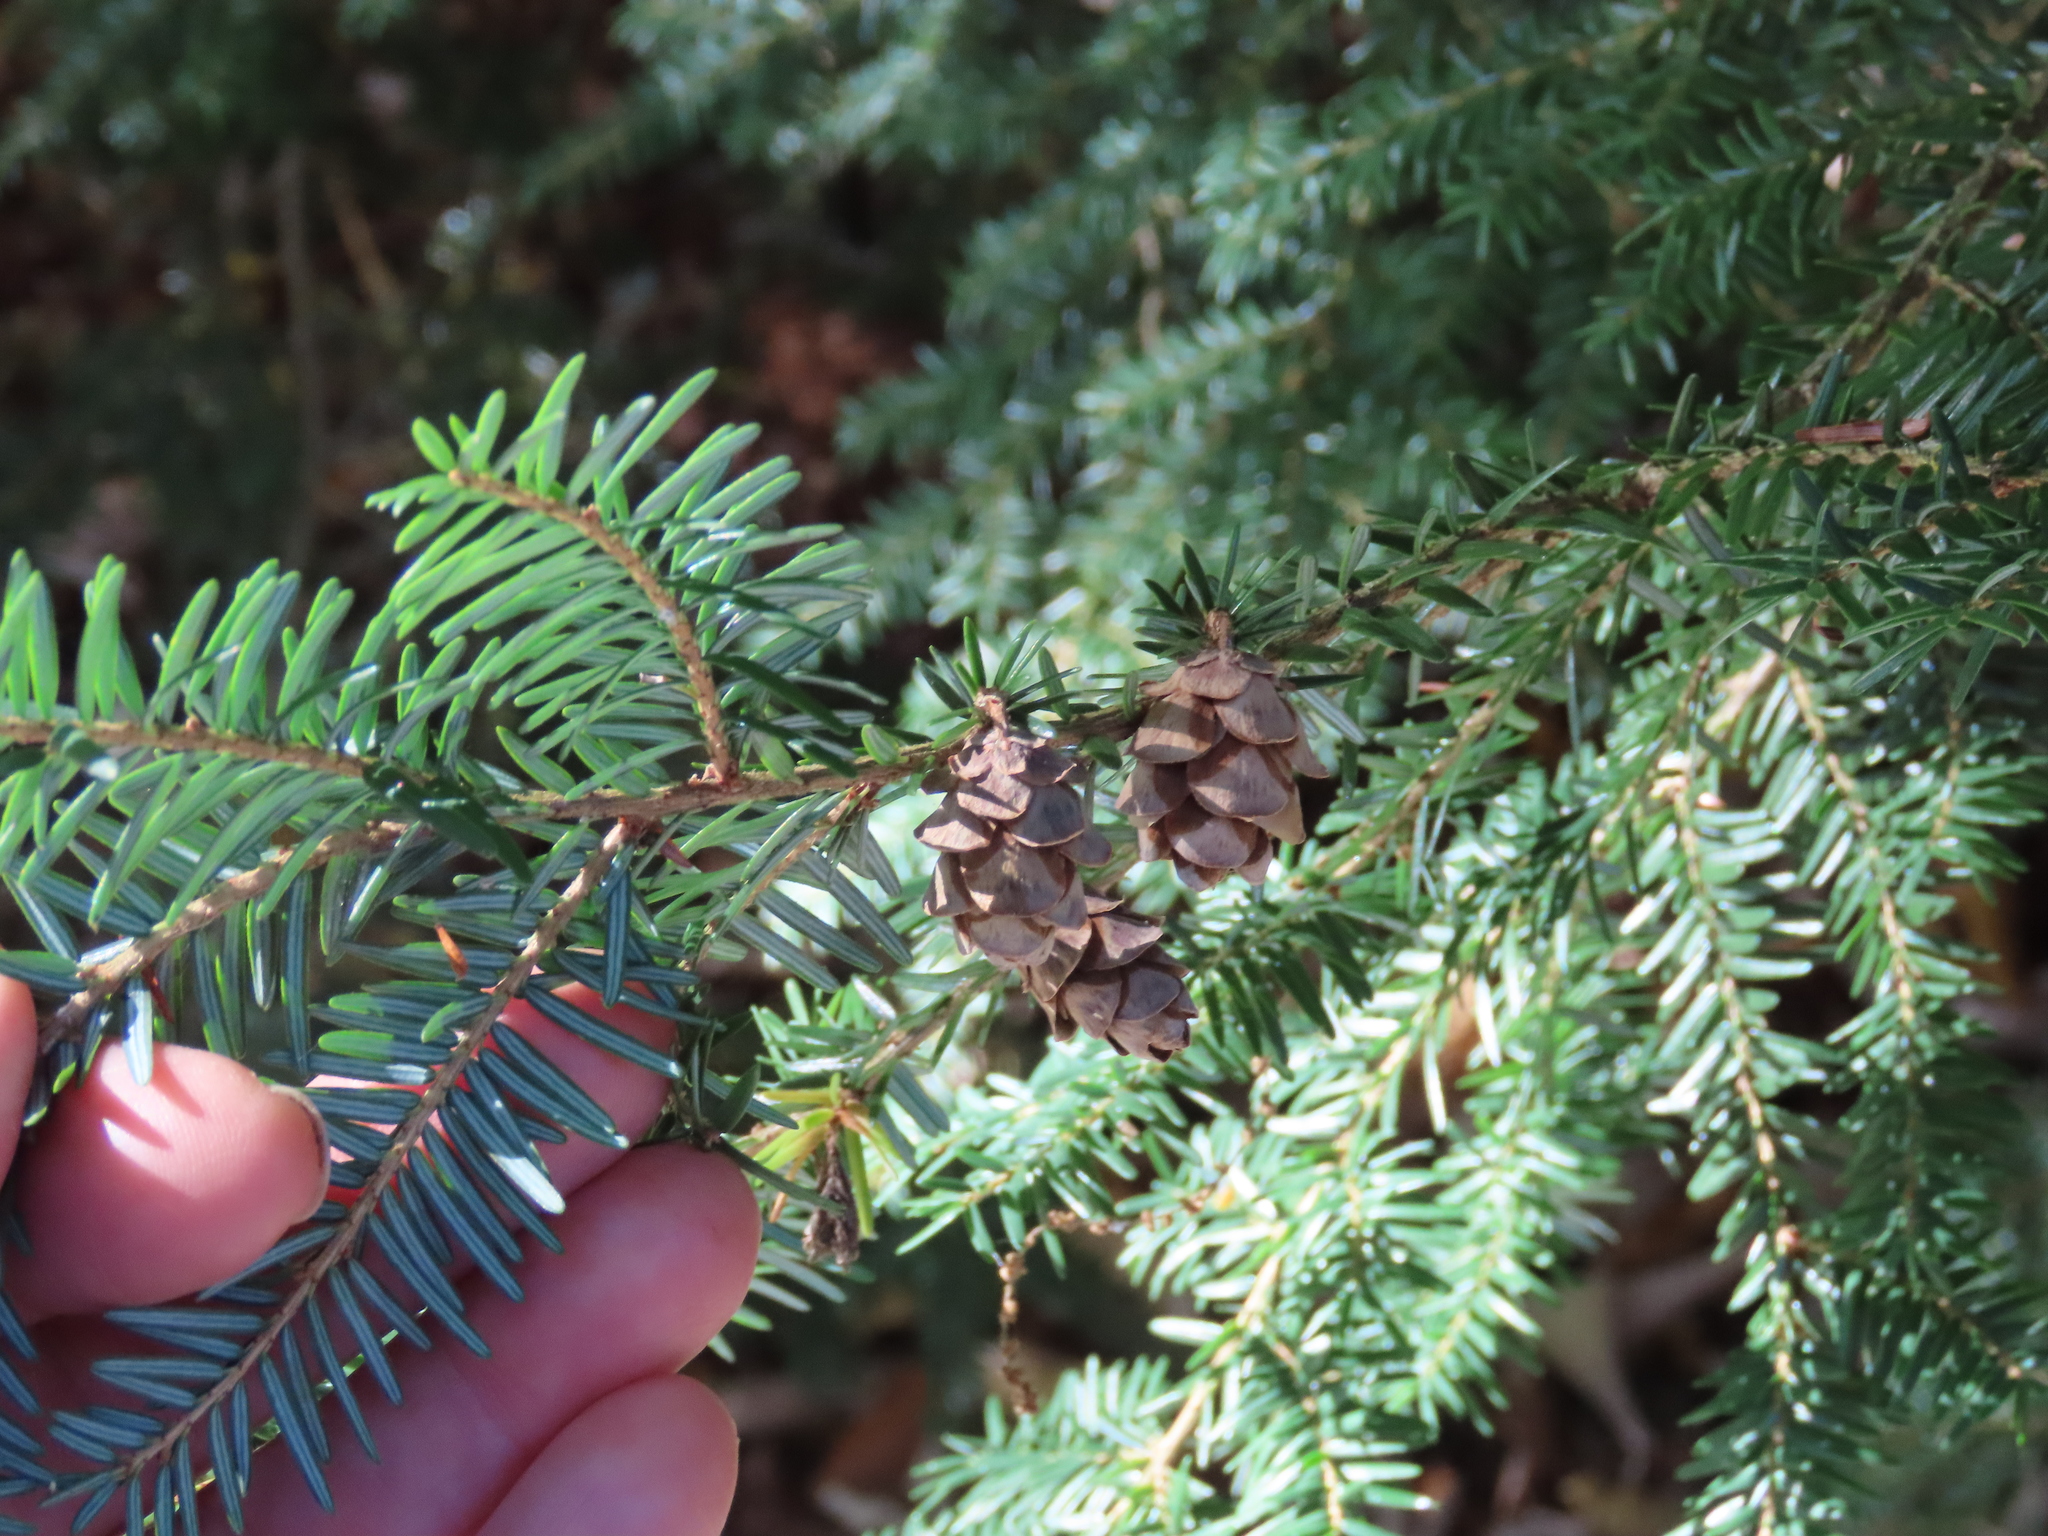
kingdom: Plantae
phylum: Tracheophyta
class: Pinopsida
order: Pinales
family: Pinaceae
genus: Tsuga
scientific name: Tsuga canadensis
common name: Eastern hemlock
